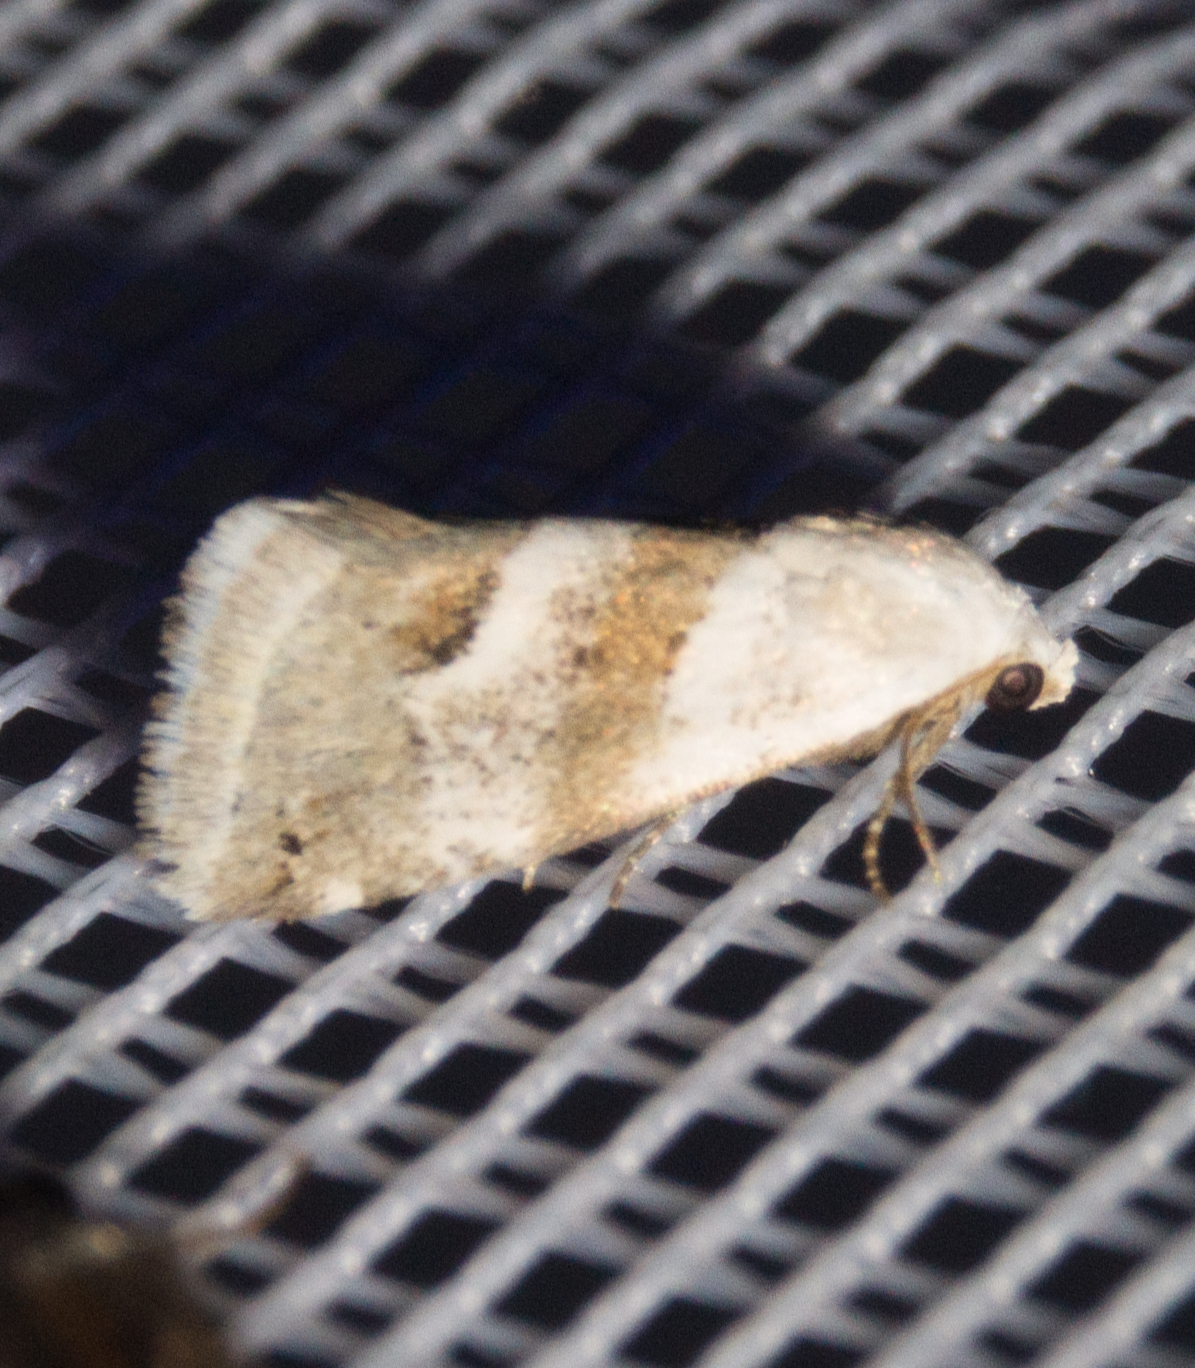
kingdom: Animalia
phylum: Arthropoda
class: Insecta
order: Lepidoptera
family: Noctuidae
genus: Eublemma
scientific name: Eublemma minutata
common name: Scarce marbled
